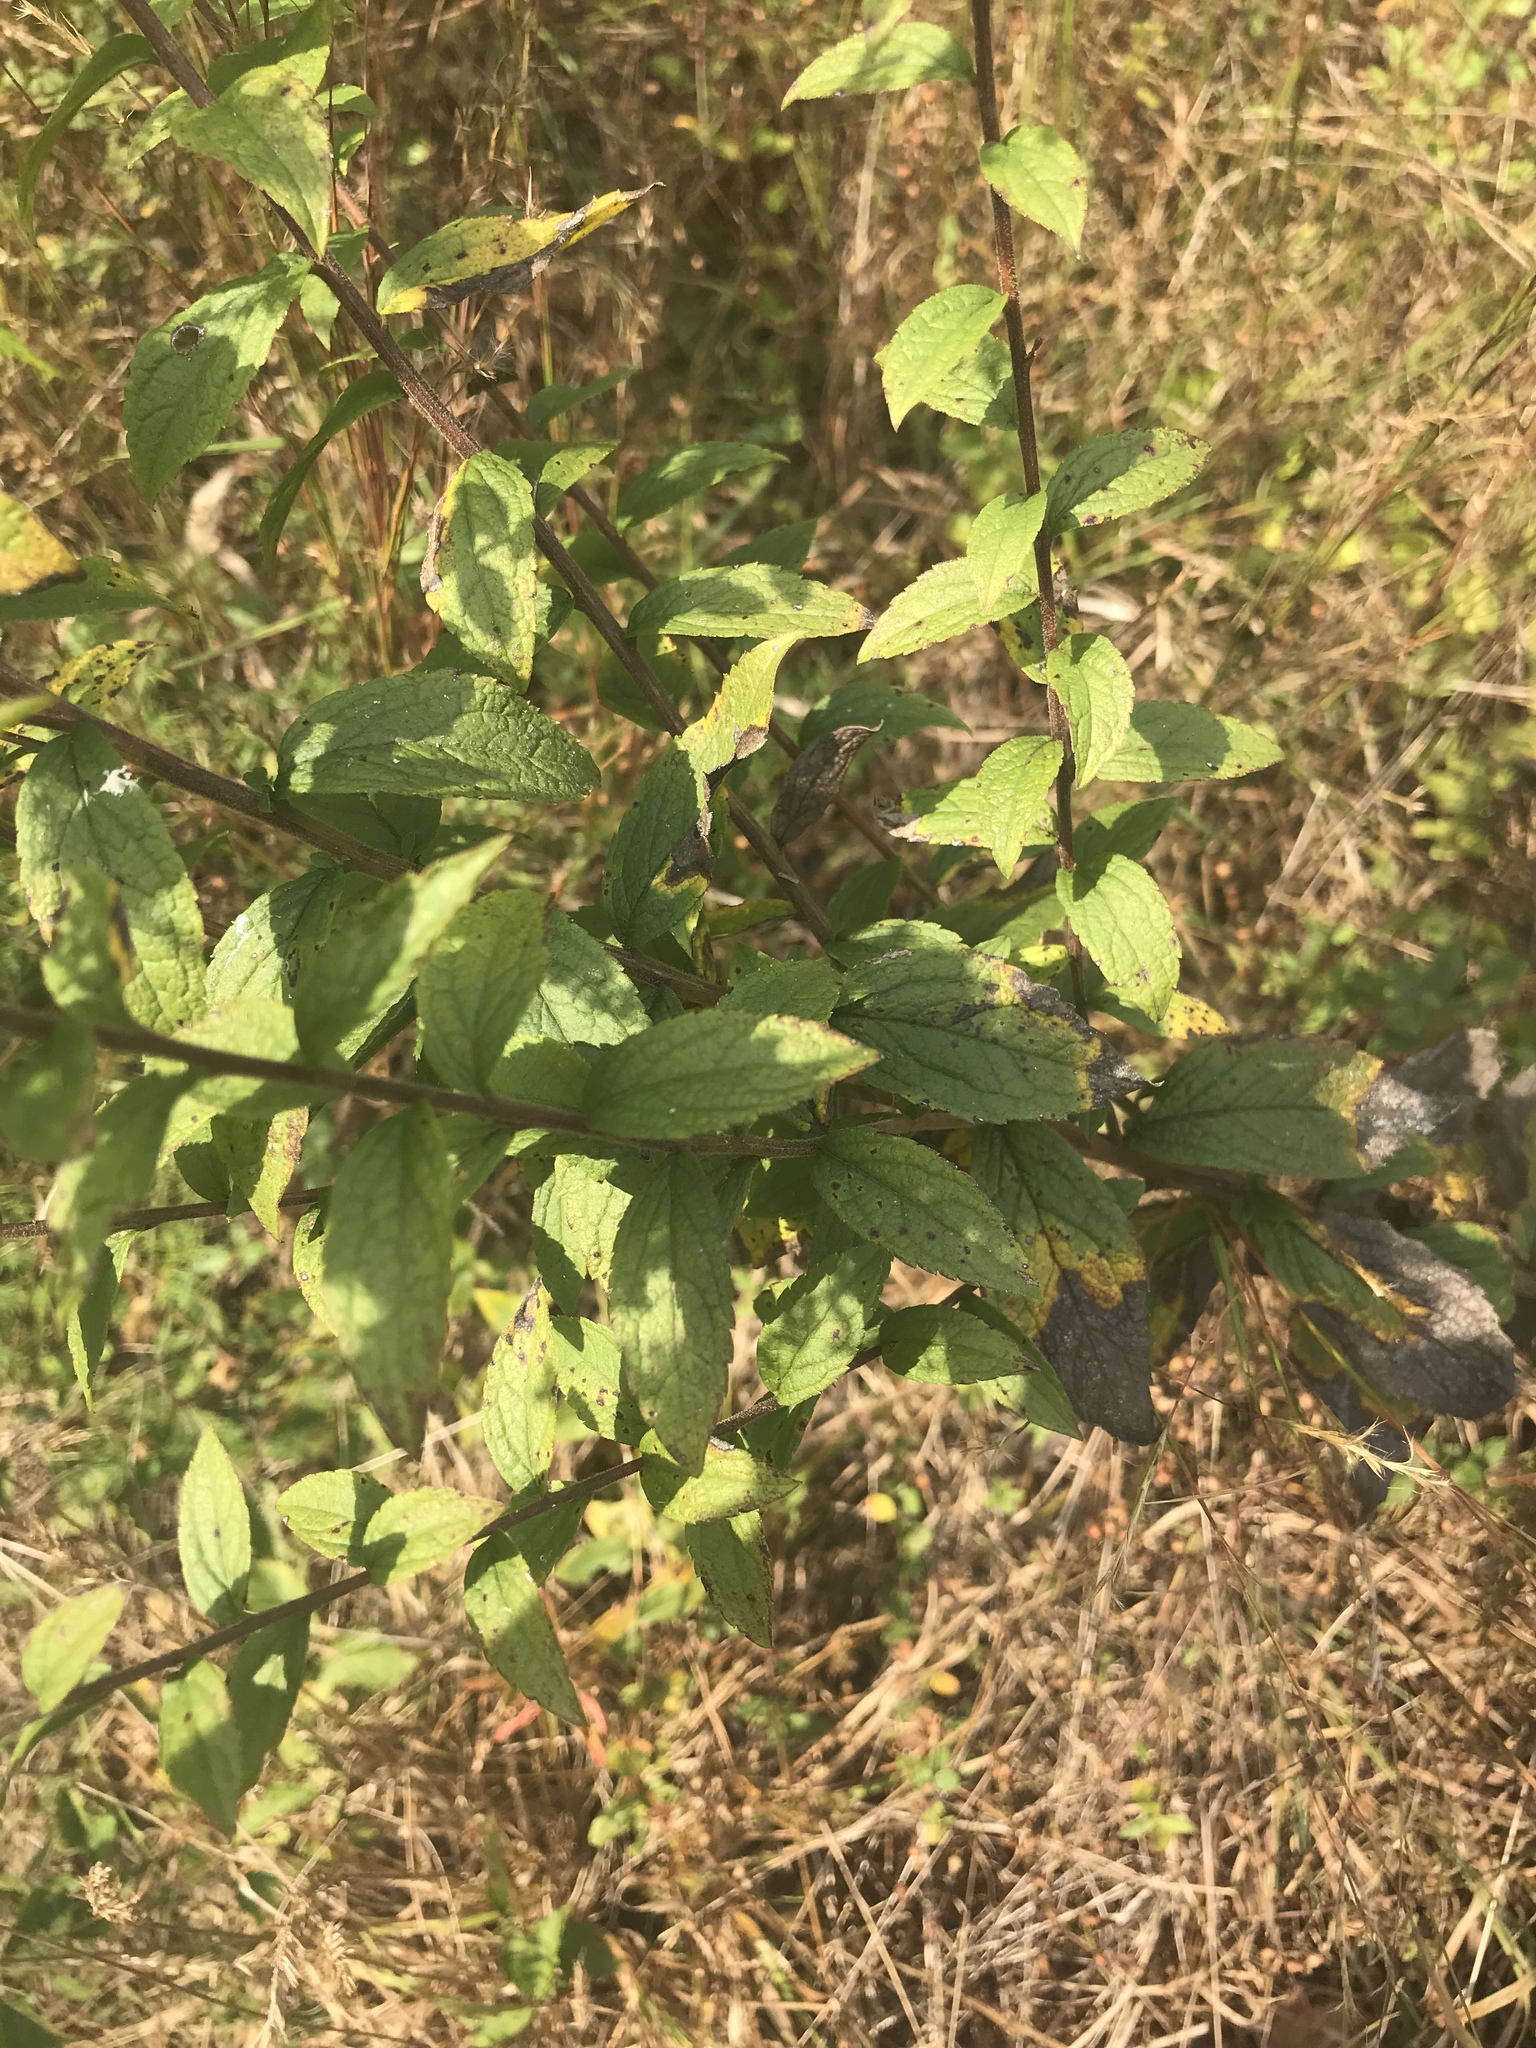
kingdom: Plantae
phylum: Tracheophyta
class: Magnoliopsida
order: Asterales
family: Asteraceae
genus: Solidago
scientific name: Solidago rugosa
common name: Rough-stemmed goldenrod
